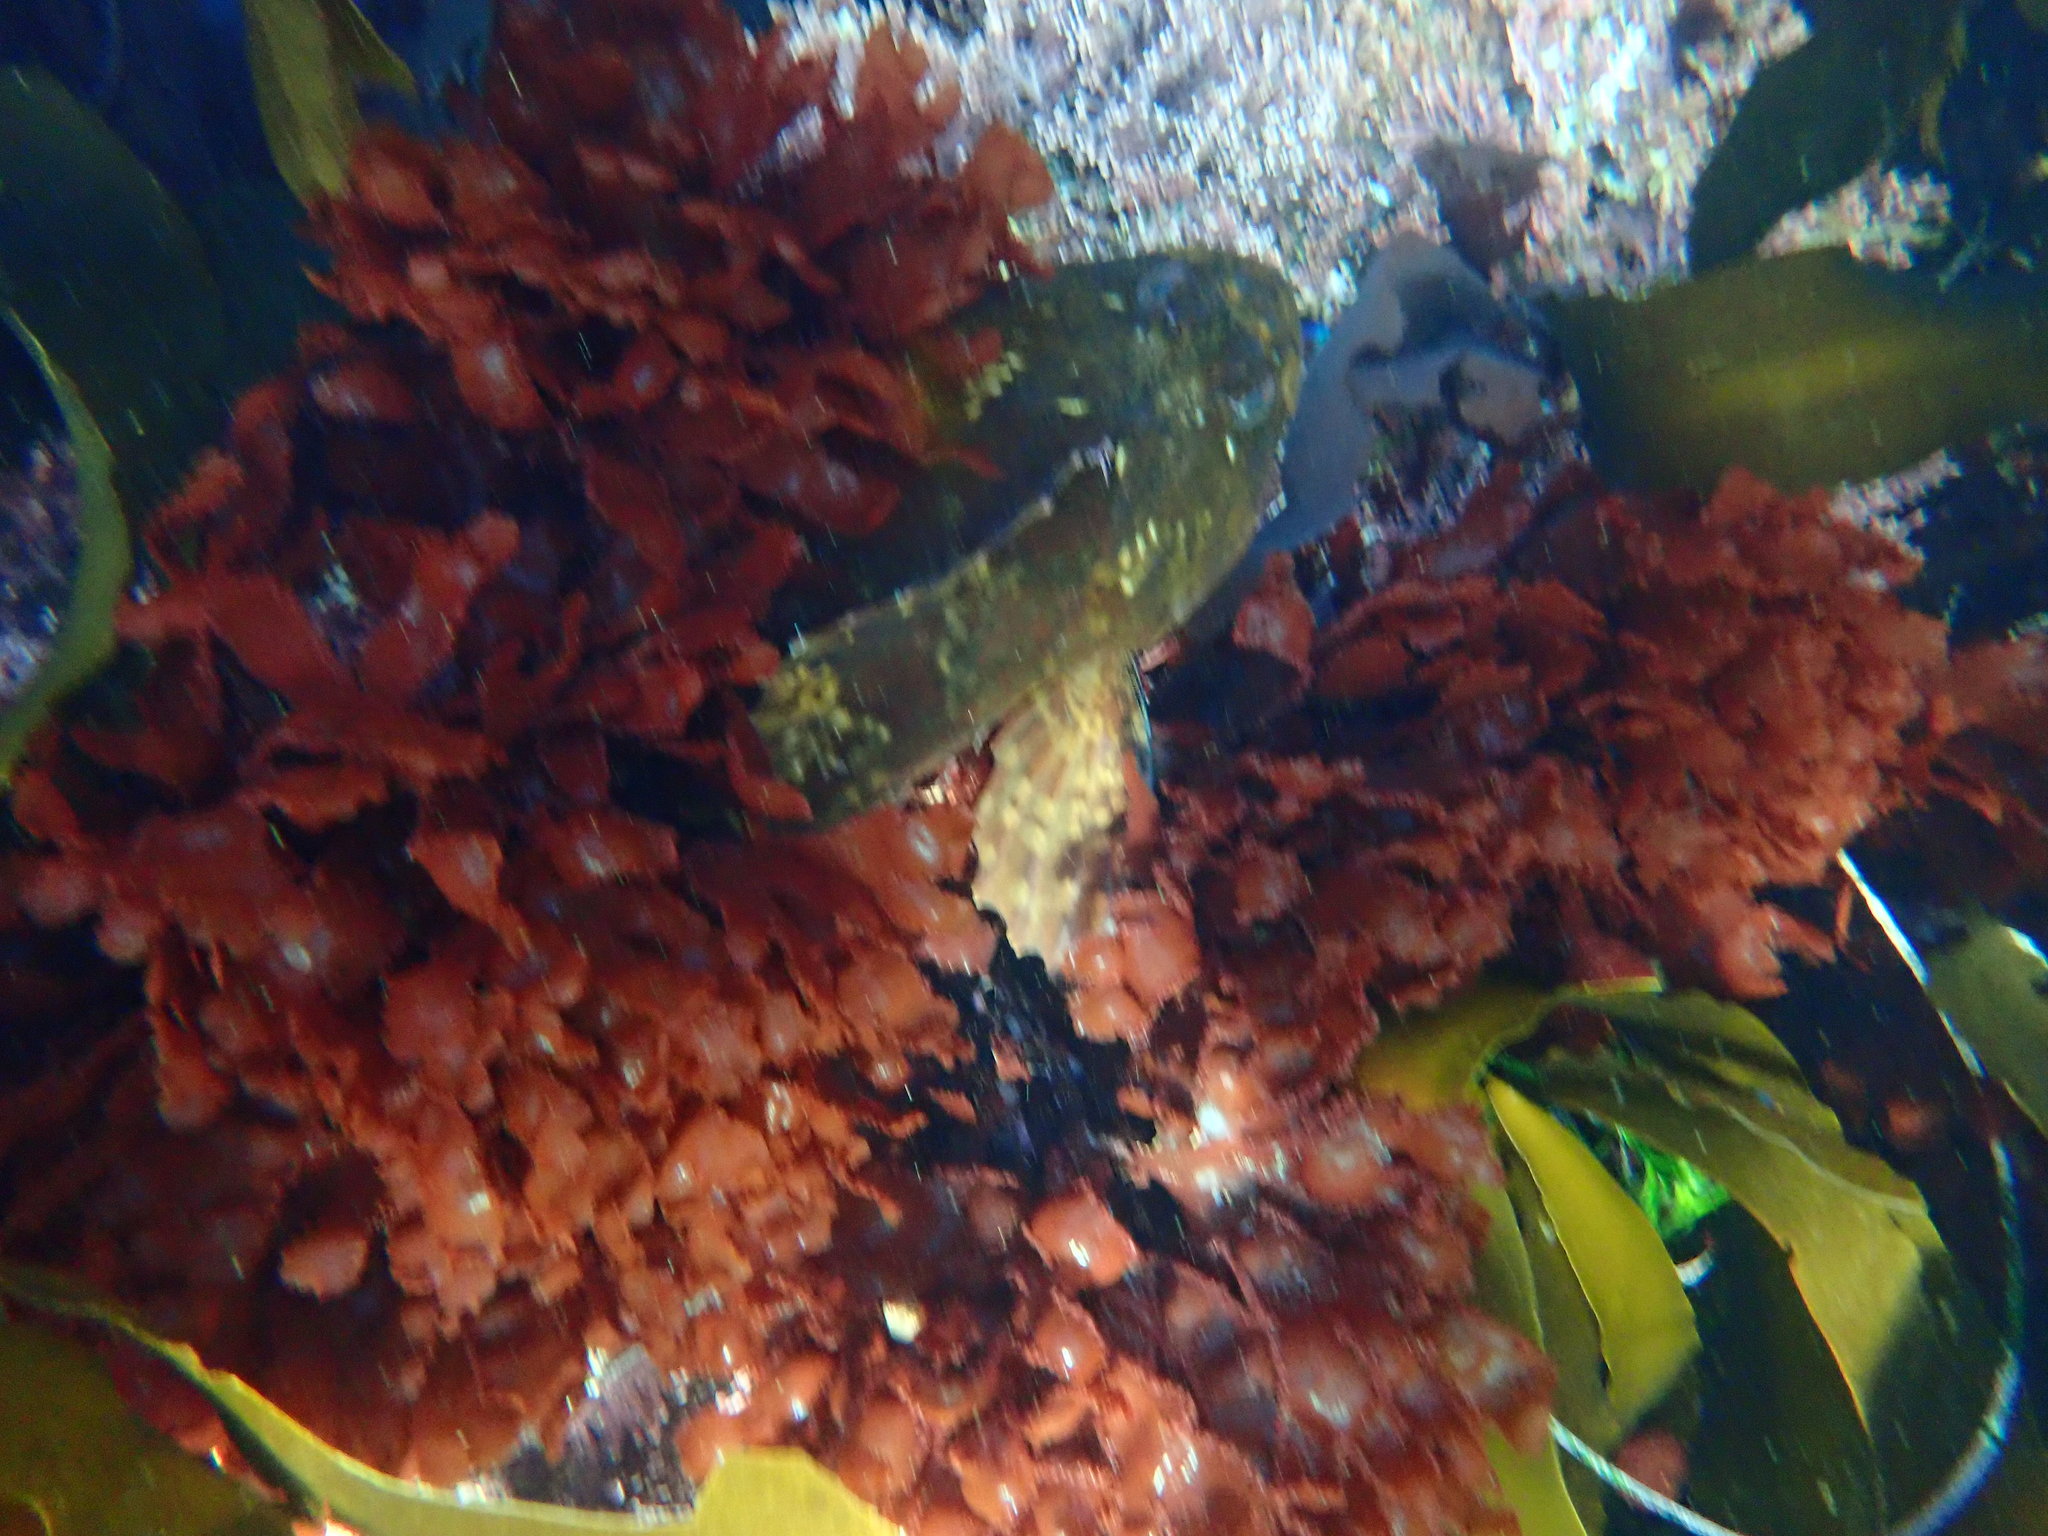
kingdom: Animalia
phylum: Chordata
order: Scorpaeniformes
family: Cottidae
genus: Scorpaenichthys
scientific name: Scorpaenichthys marmoratus
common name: Cabezon
